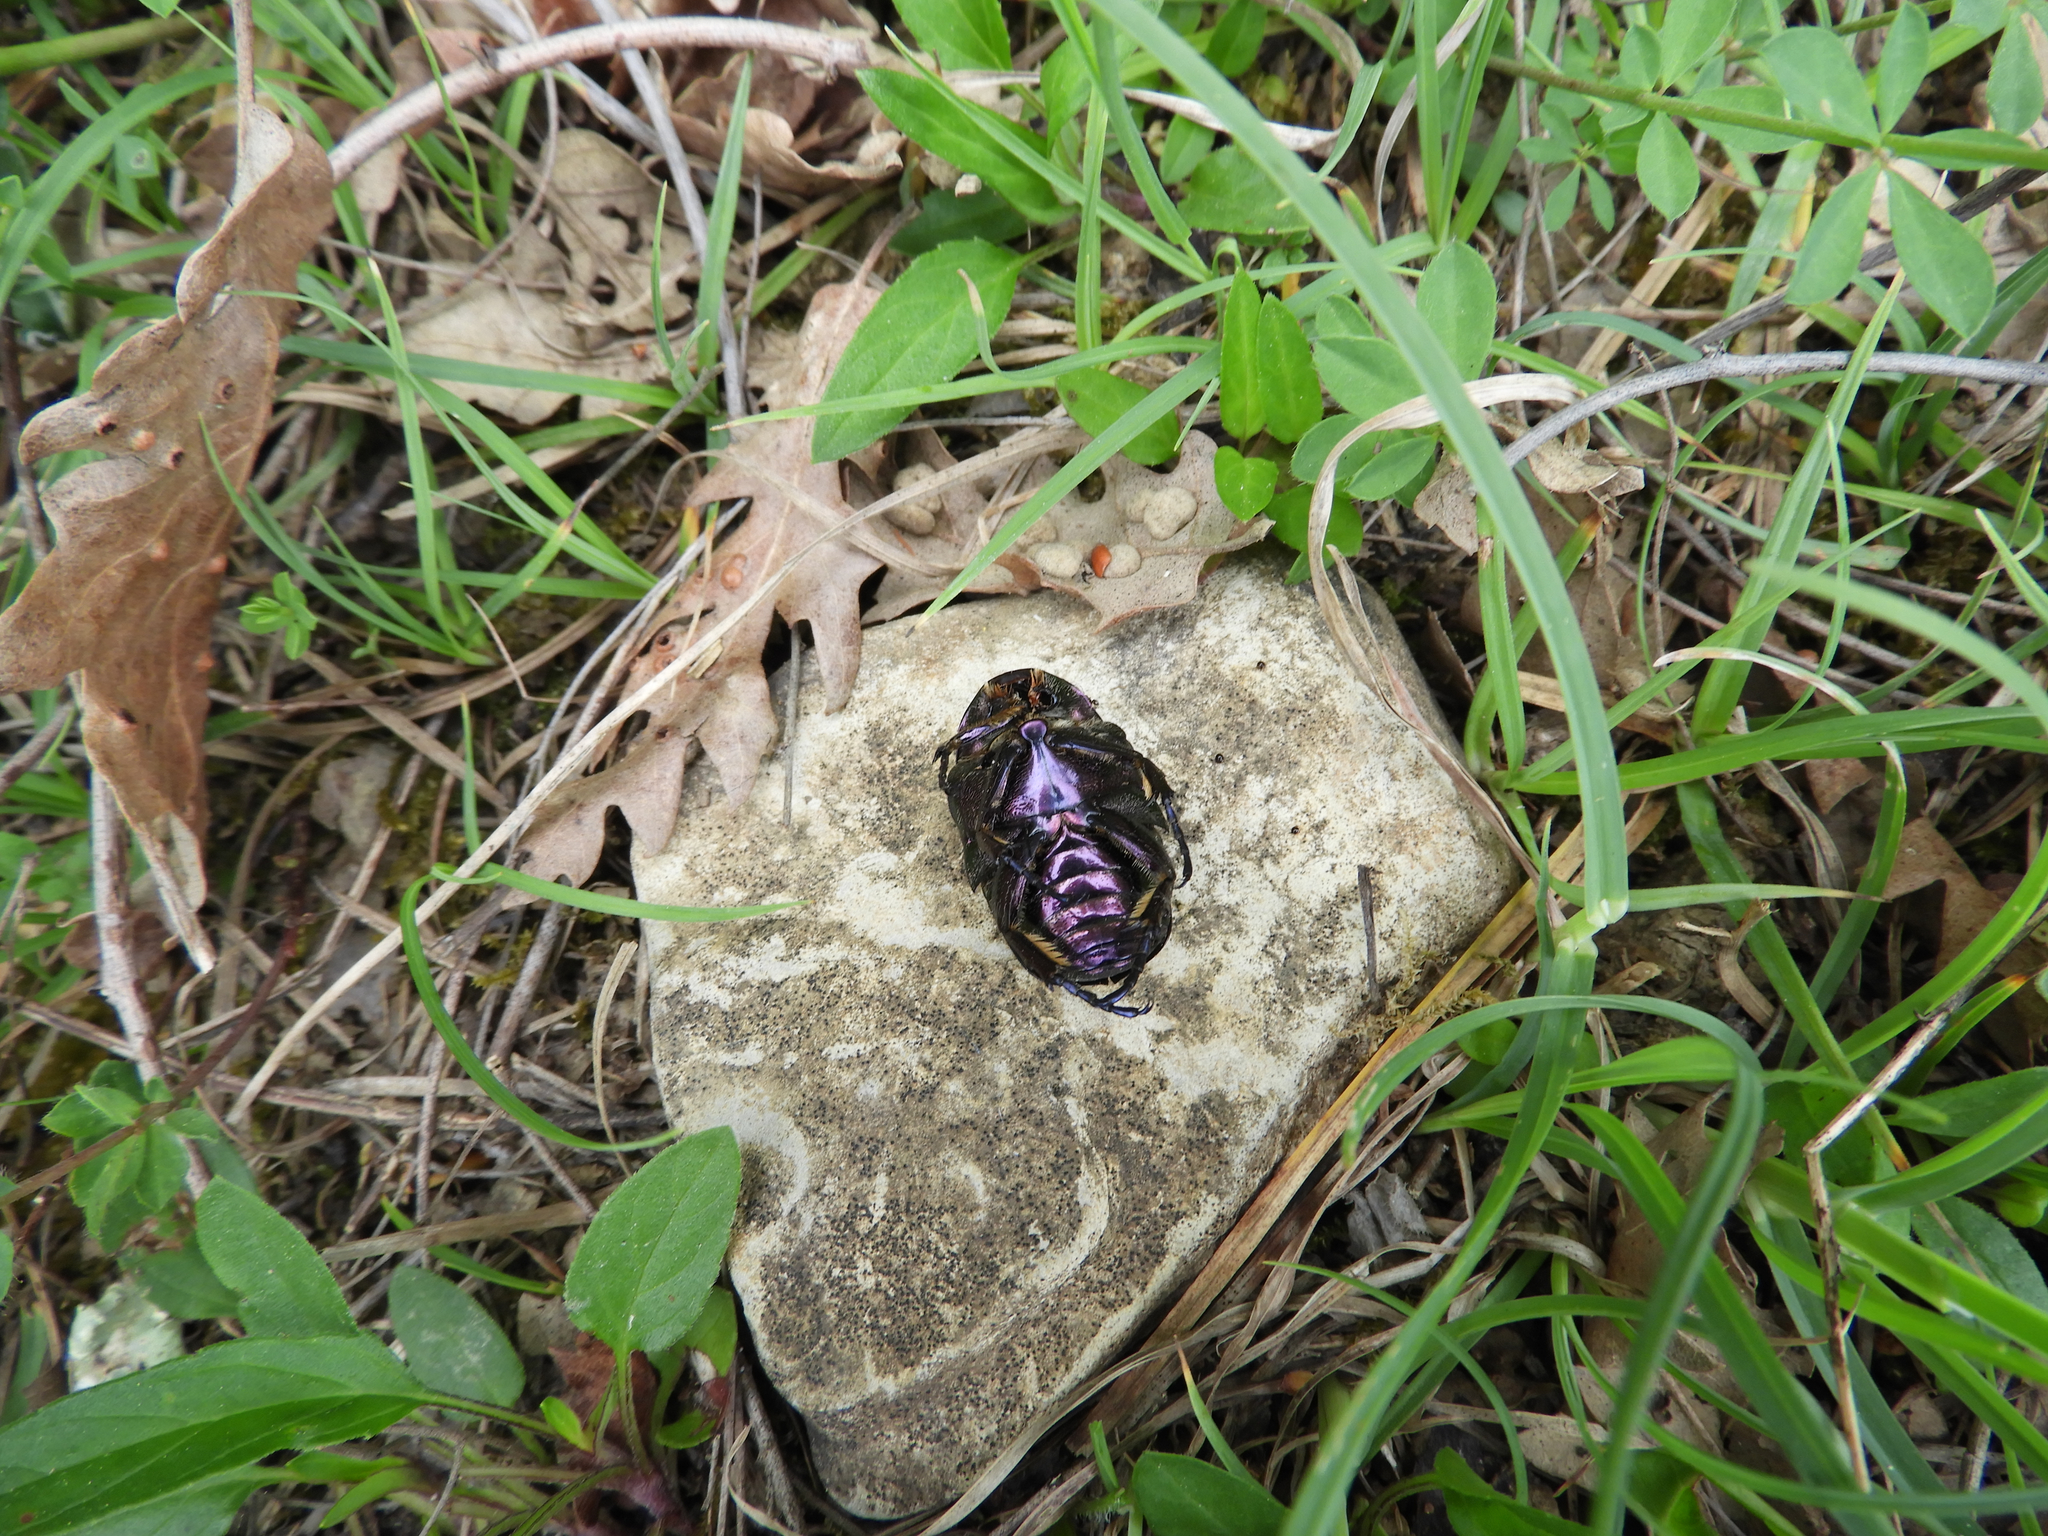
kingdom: Animalia
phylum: Arthropoda
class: Insecta
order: Coleoptera
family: Scarabaeidae
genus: Protaetia
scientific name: Protaetia cuprea
